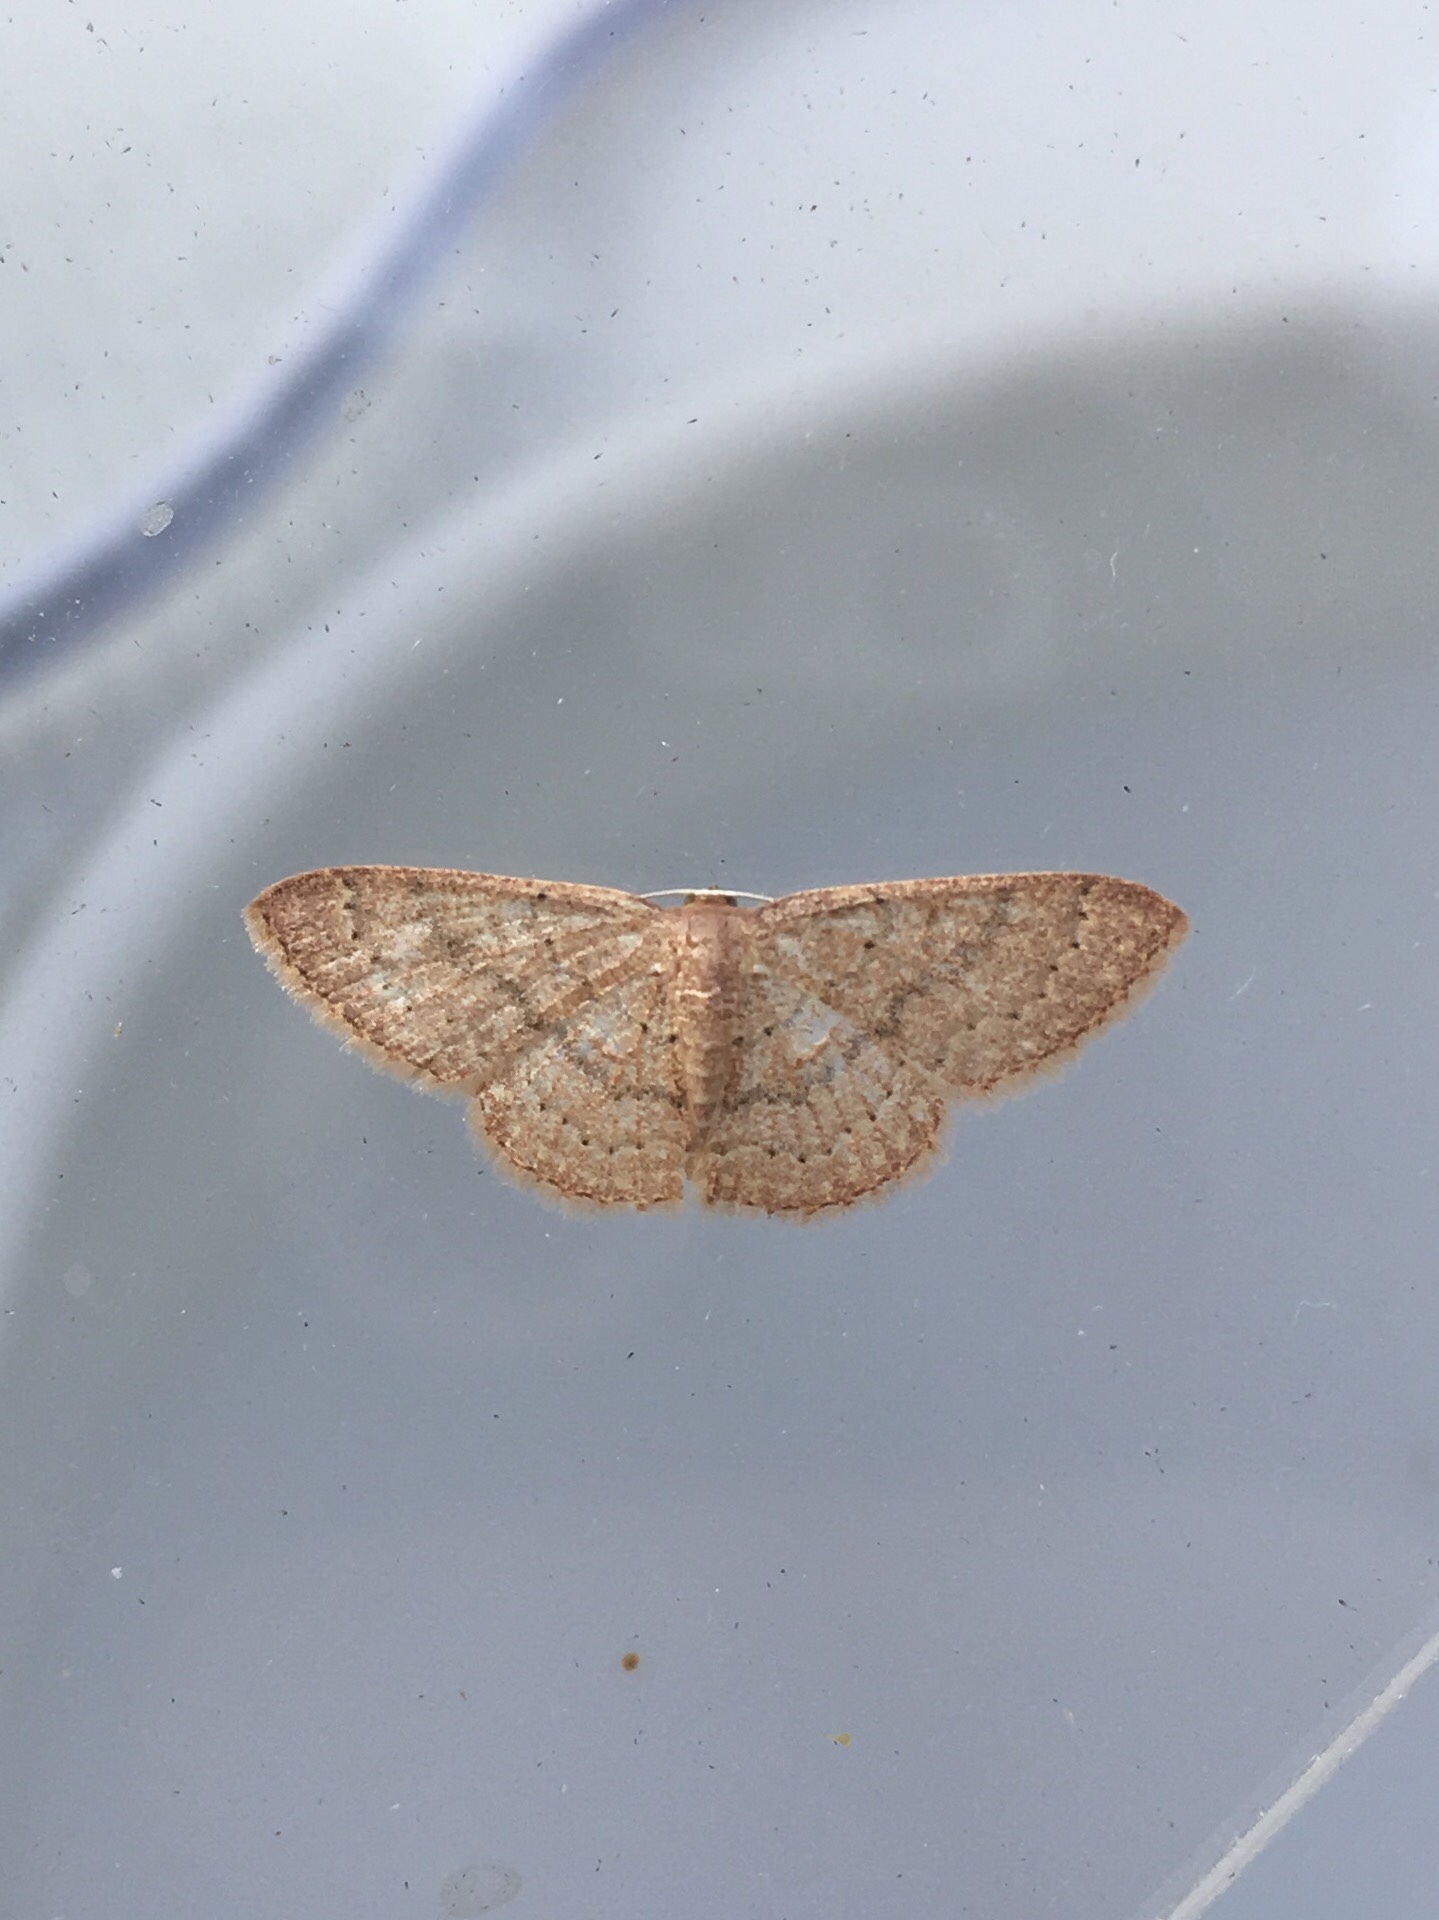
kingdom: Animalia
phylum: Arthropoda
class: Insecta
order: Lepidoptera
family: Geometridae
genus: Pleuroprucha
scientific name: Pleuroprucha insulsaria
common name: Common tan wave
